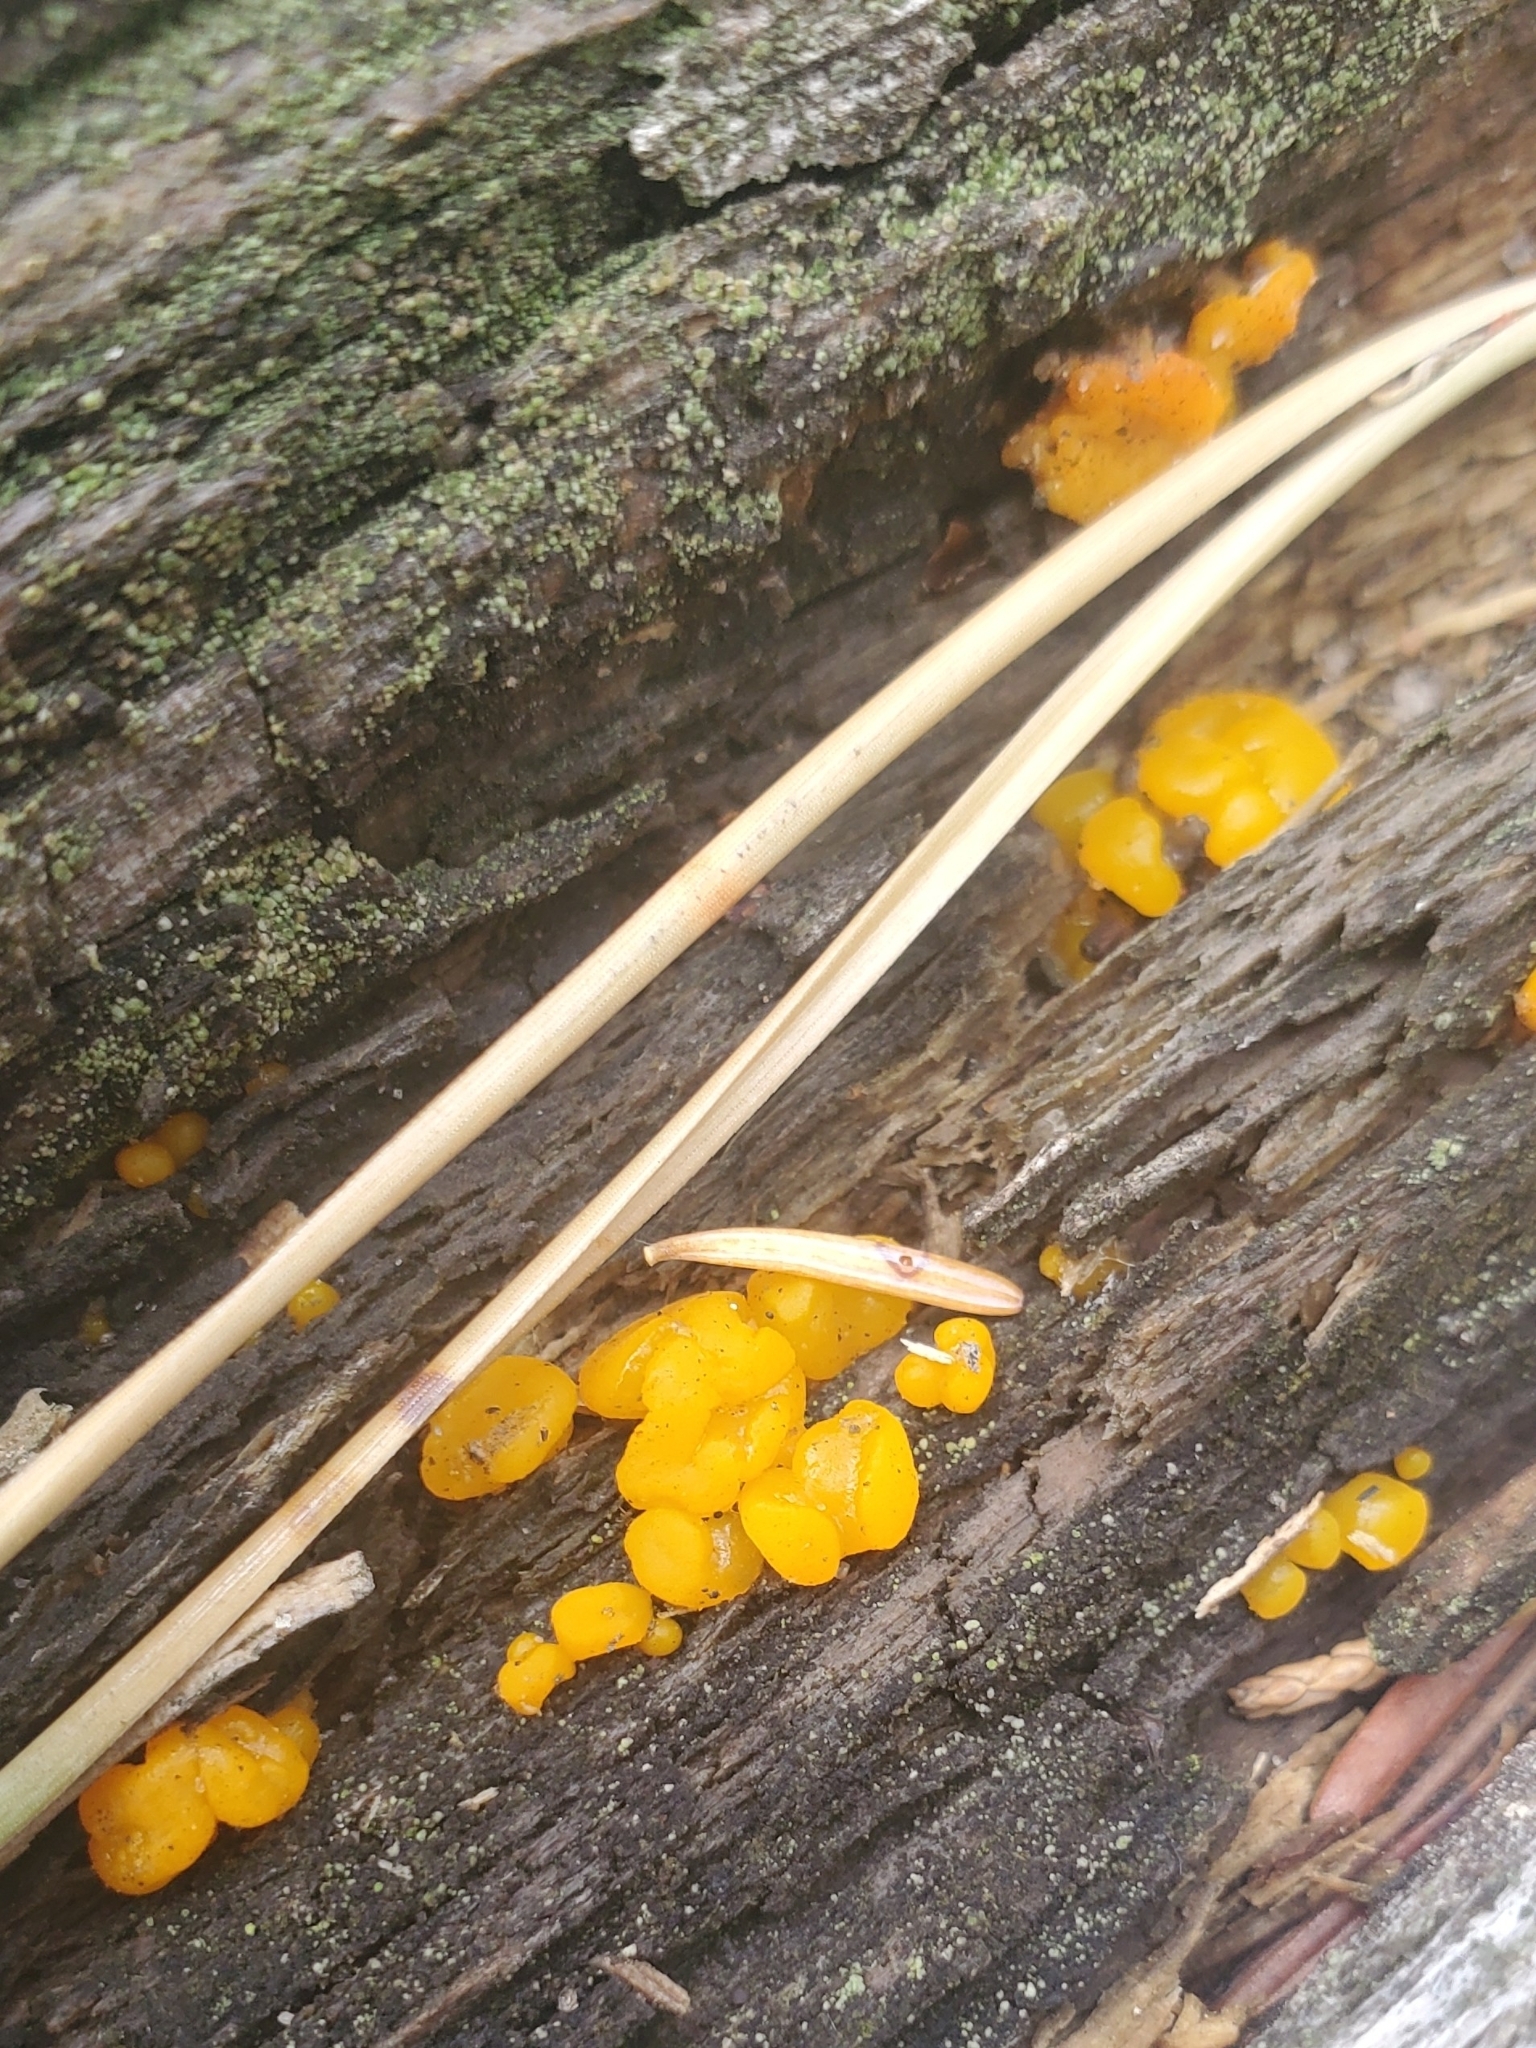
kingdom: Fungi
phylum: Basidiomycota
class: Dacrymycetes
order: Dacrymycetales
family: Dacrymycetaceae
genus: Dacrymyces
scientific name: Dacrymyces chrysospermus
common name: Orange jelly spot
